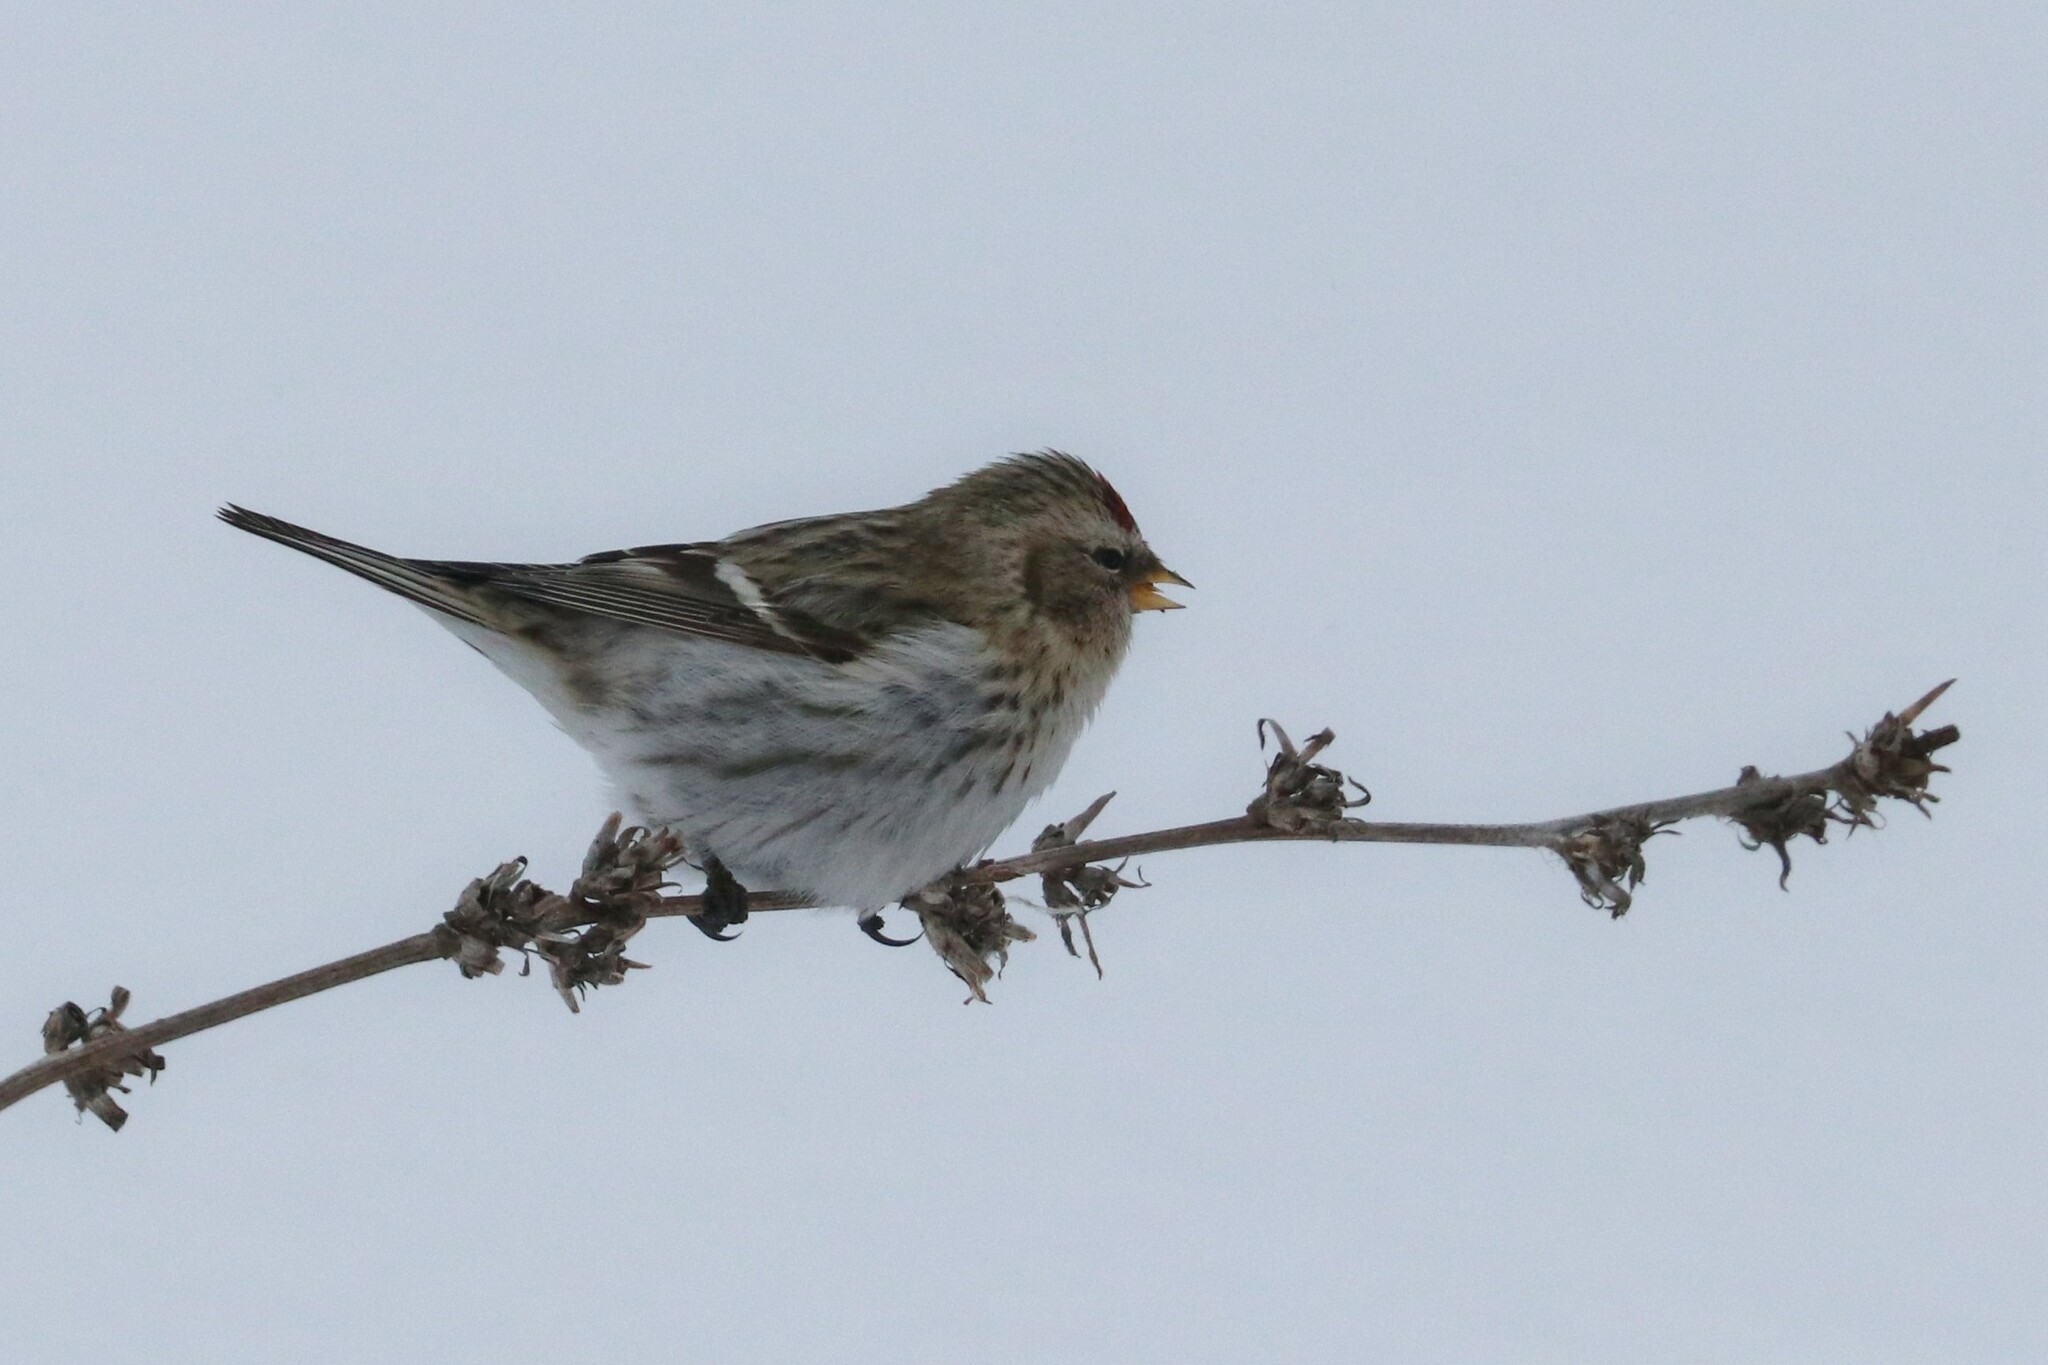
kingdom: Animalia
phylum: Chordata
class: Aves
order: Passeriformes
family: Fringillidae
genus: Acanthis
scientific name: Acanthis flammea
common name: Common redpoll
